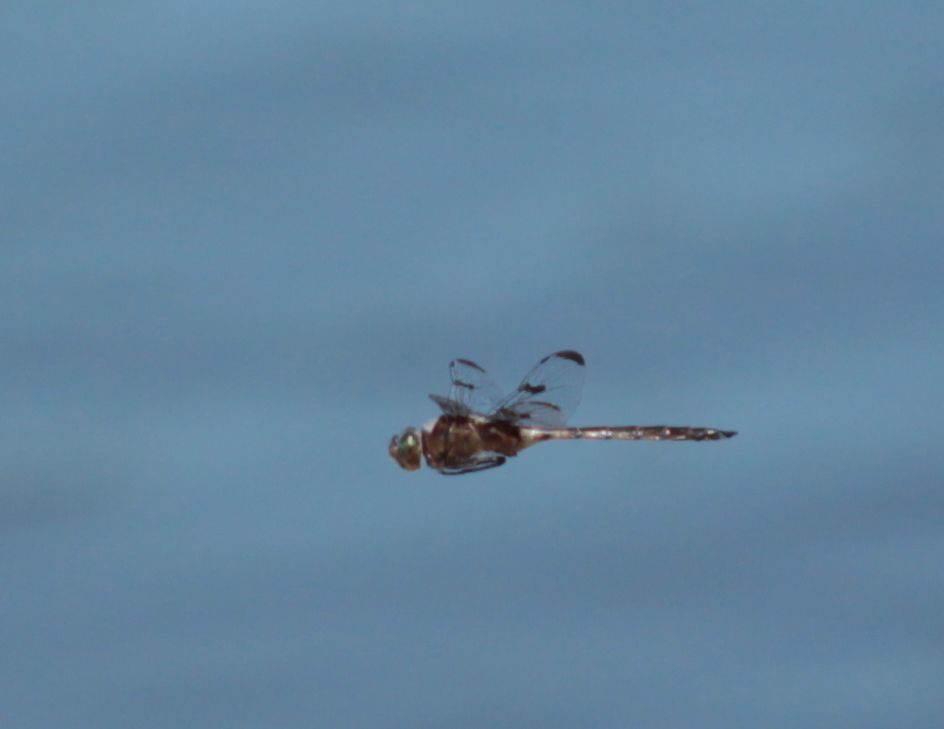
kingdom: Animalia
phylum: Arthropoda
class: Insecta
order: Odonata
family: Corduliidae
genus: Epitheca
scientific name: Epitheca princeps
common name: Prince baskettail
